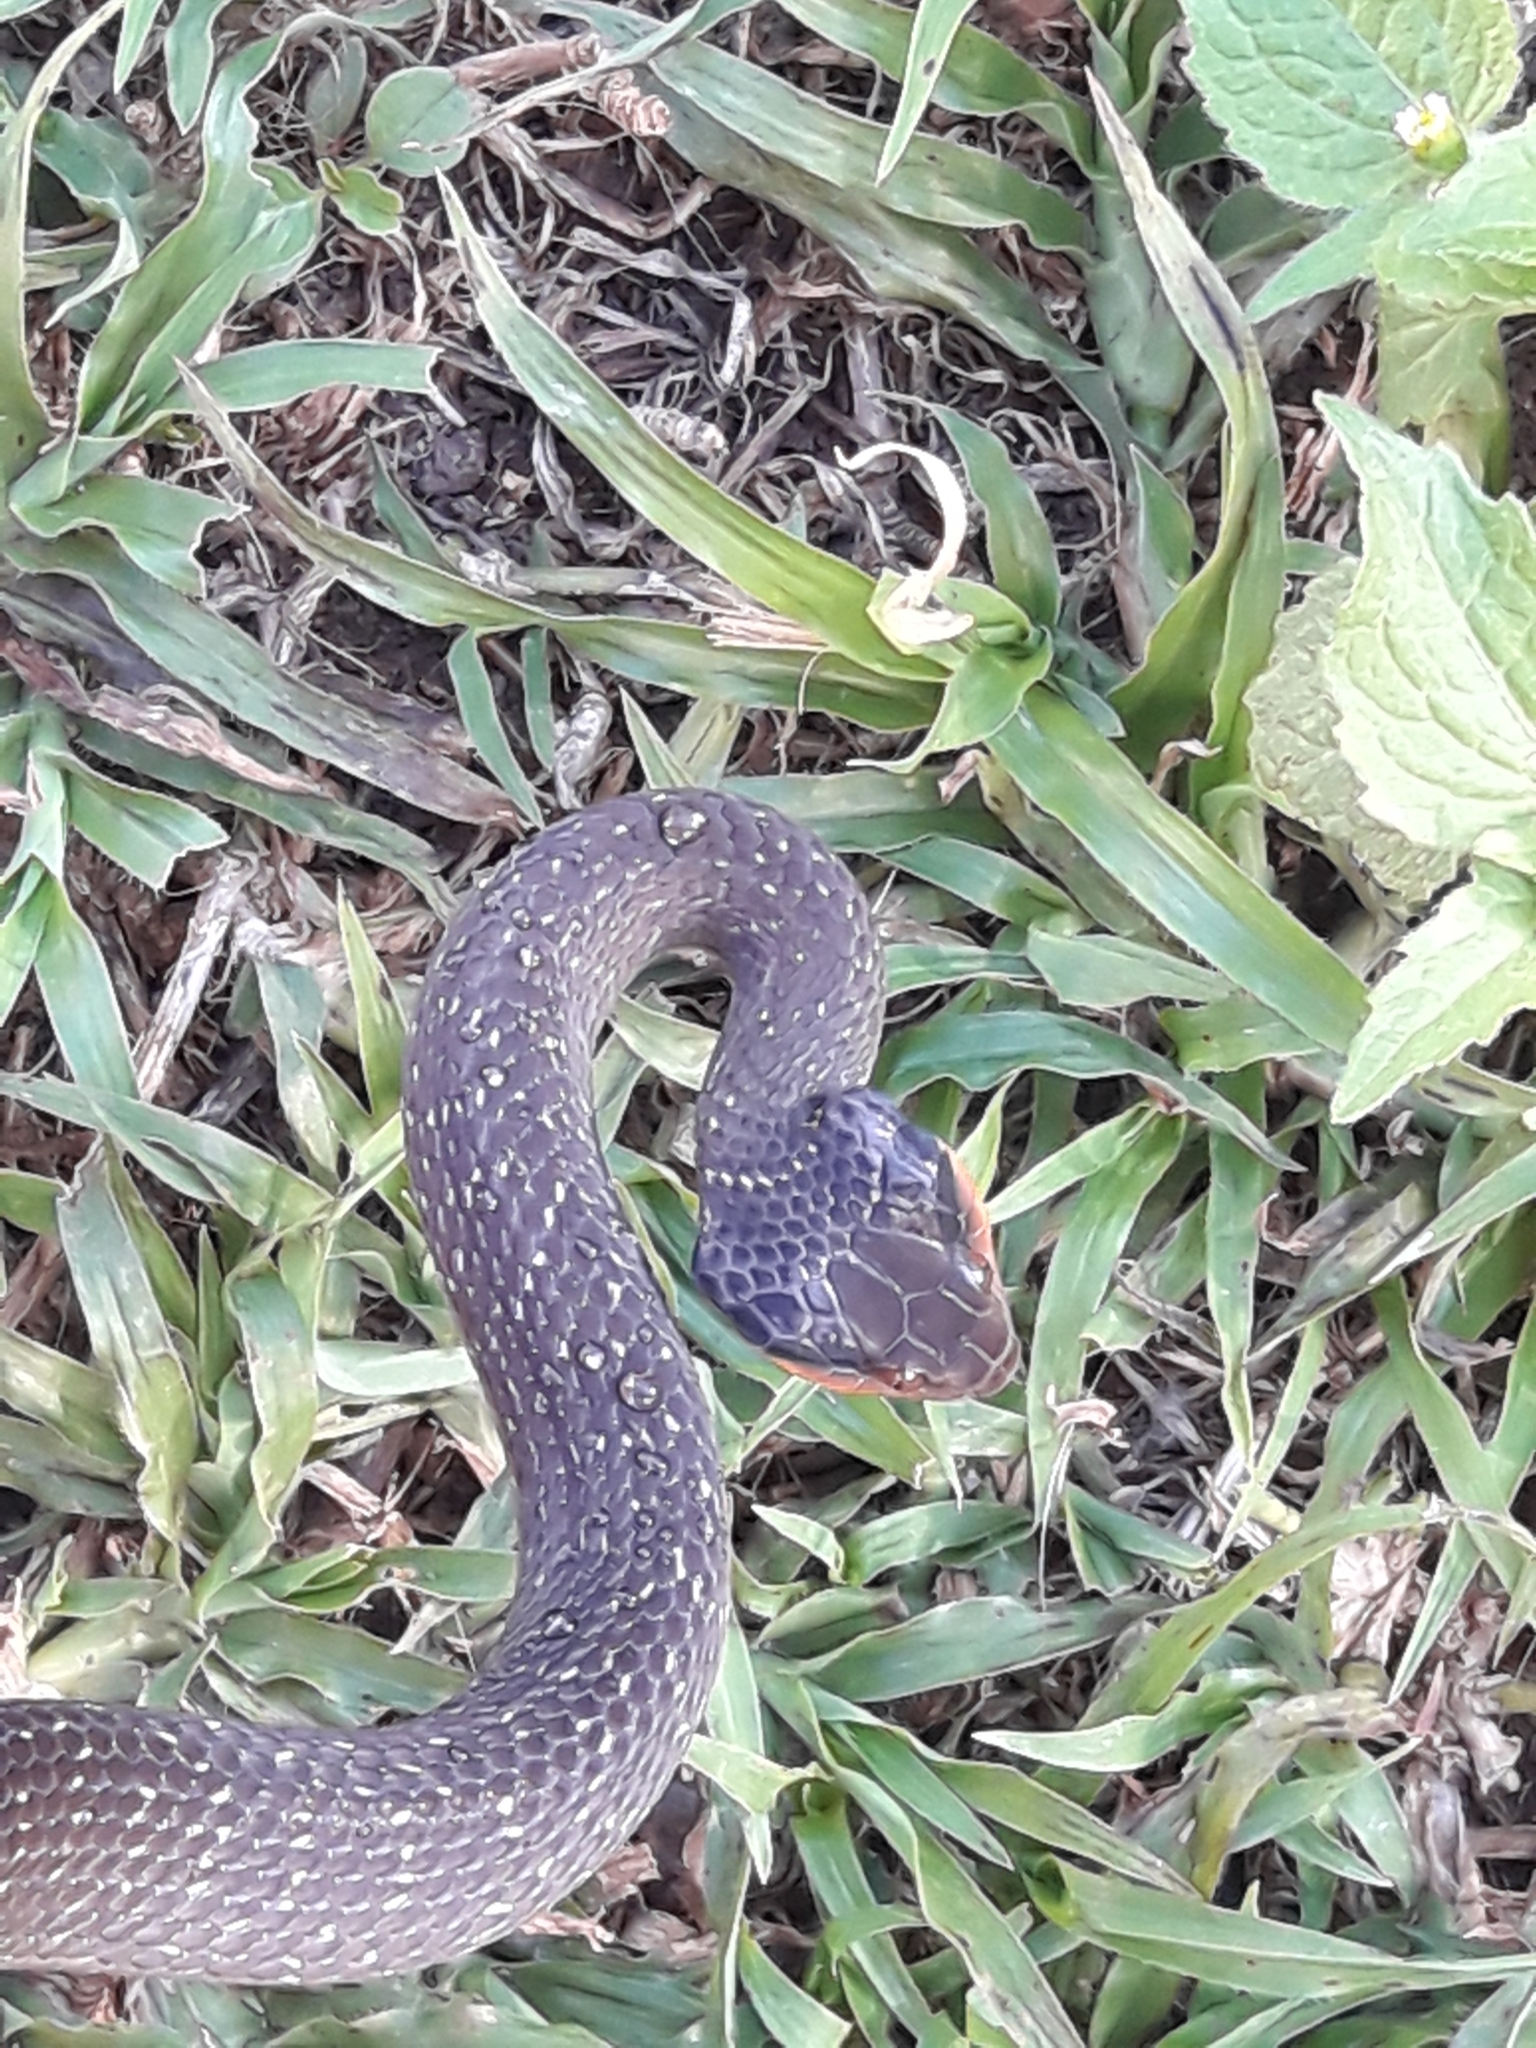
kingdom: Animalia
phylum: Chordata
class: Squamata
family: Colubridae
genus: Crotaphopeltis
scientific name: Crotaphopeltis hotamboeia
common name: Red-lipped snake
